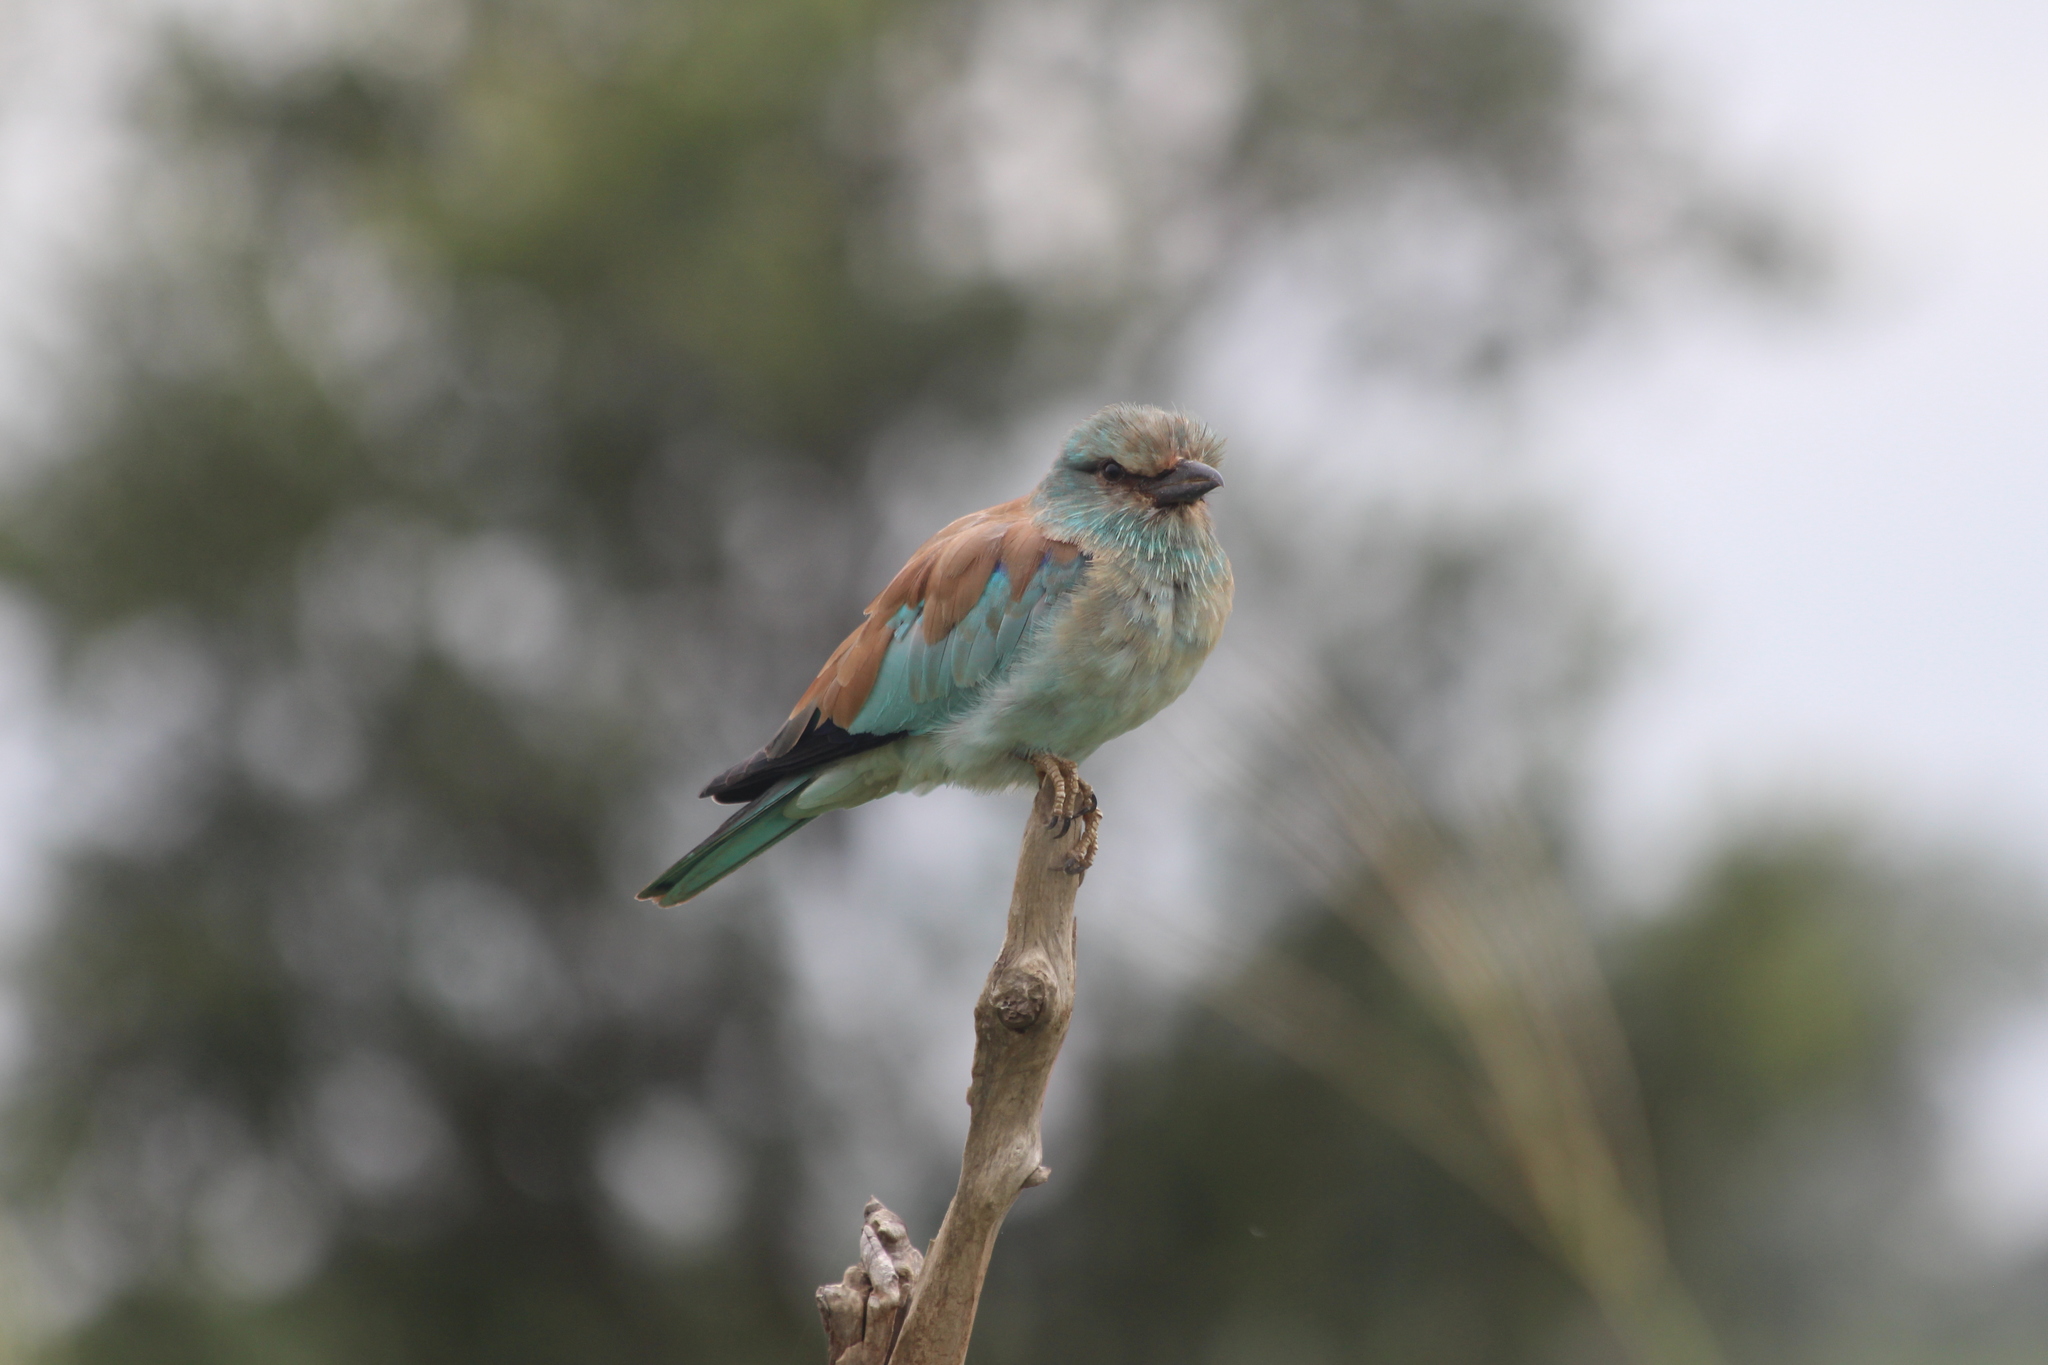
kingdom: Animalia
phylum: Chordata
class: Aves
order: Coraciiformes
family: Coraciidae
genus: Coracias
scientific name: Coracias garrulus
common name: European roller
